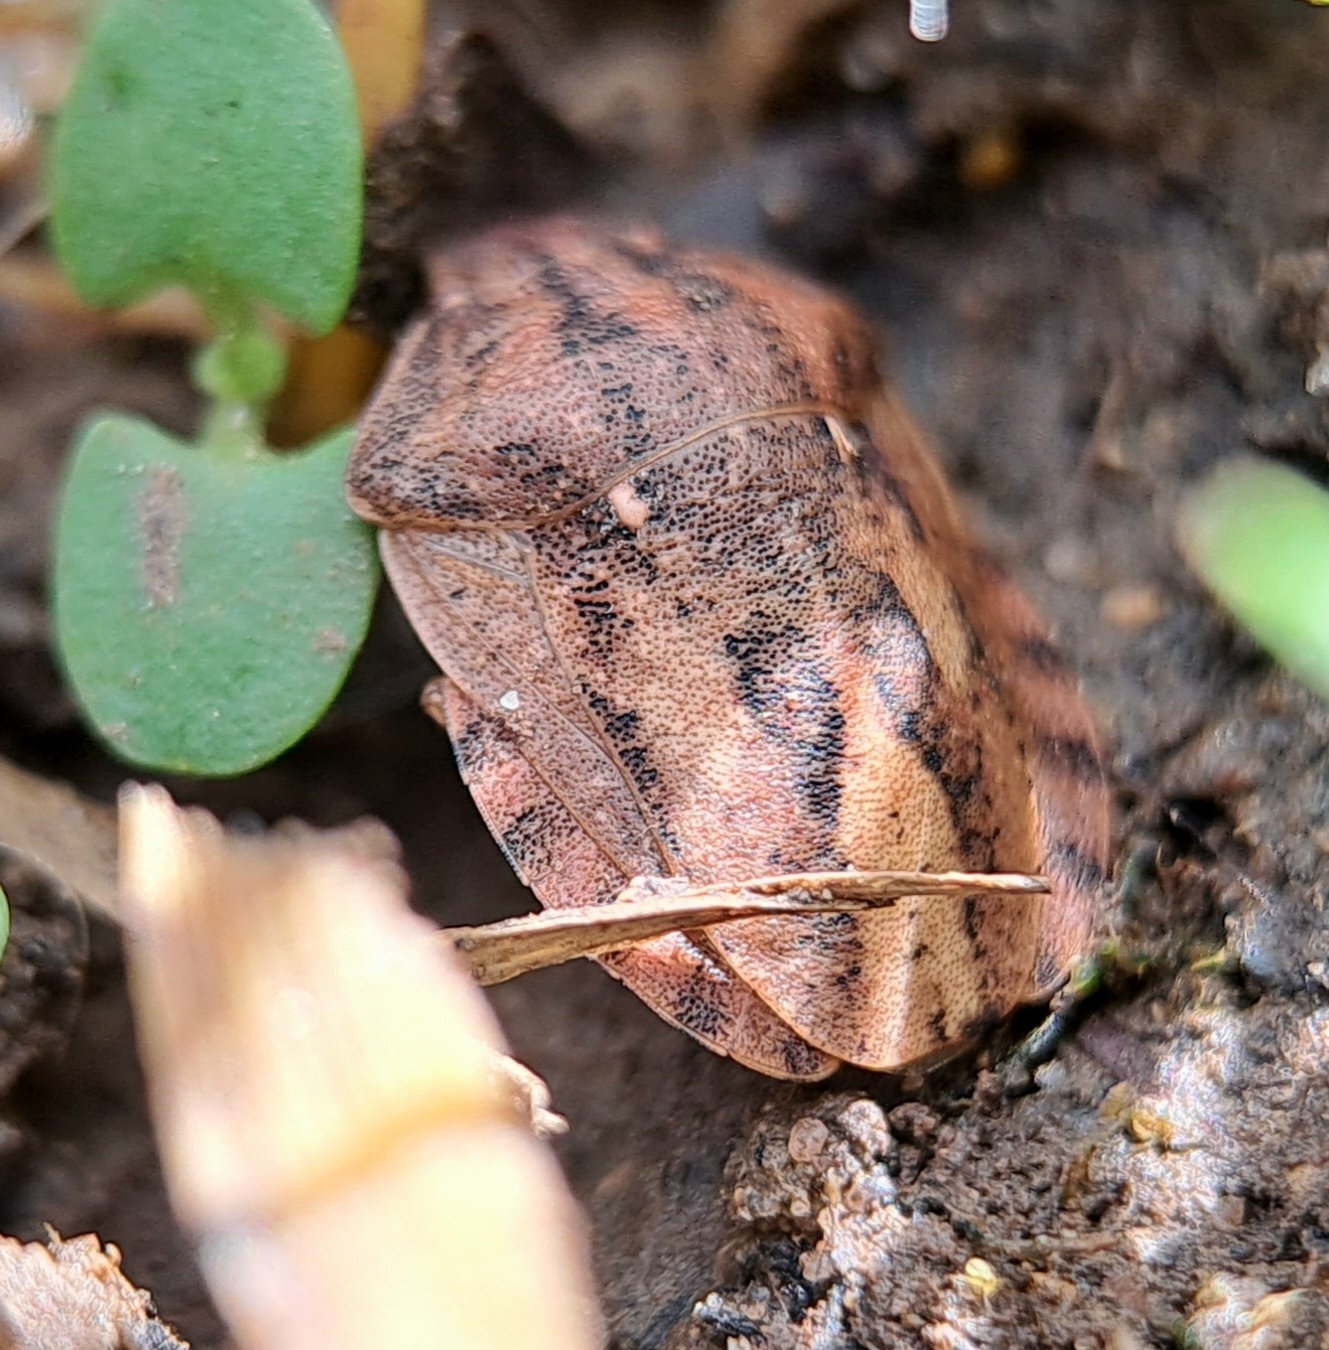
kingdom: Animalia
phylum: Arthropoda
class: Insecta
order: Hemiptera
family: Scutelleridae
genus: Eurygaster
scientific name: Eurygaster testudinaria
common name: Tortoise bug
